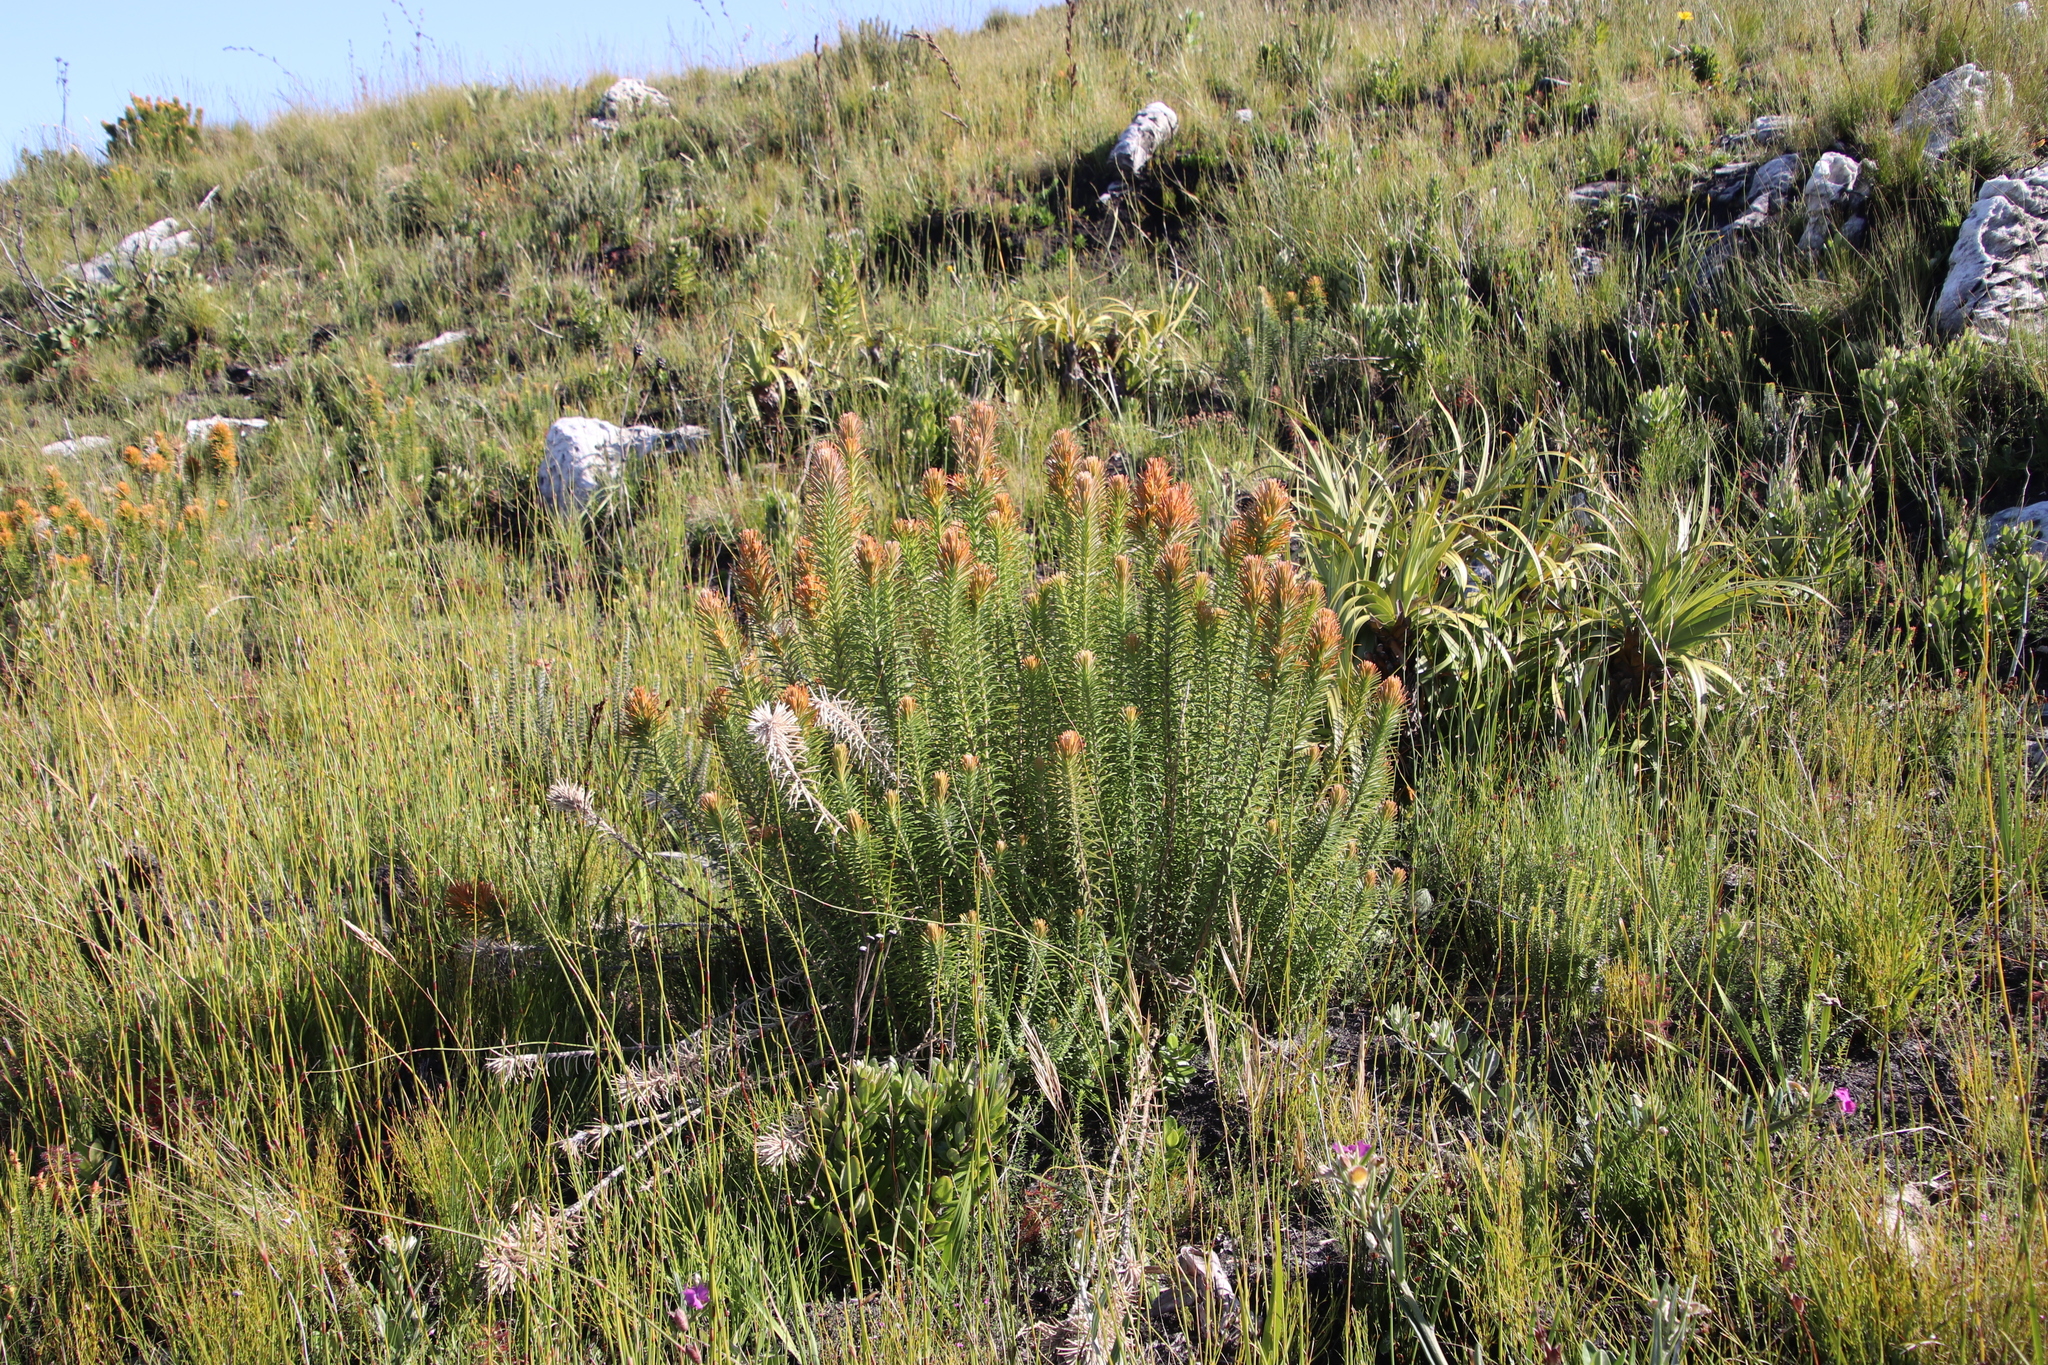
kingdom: Plantae
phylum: Tracheophyta
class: Magnoliopsida
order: Lamiales
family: Stilbaceae
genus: Retzia
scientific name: Retzia capensis
